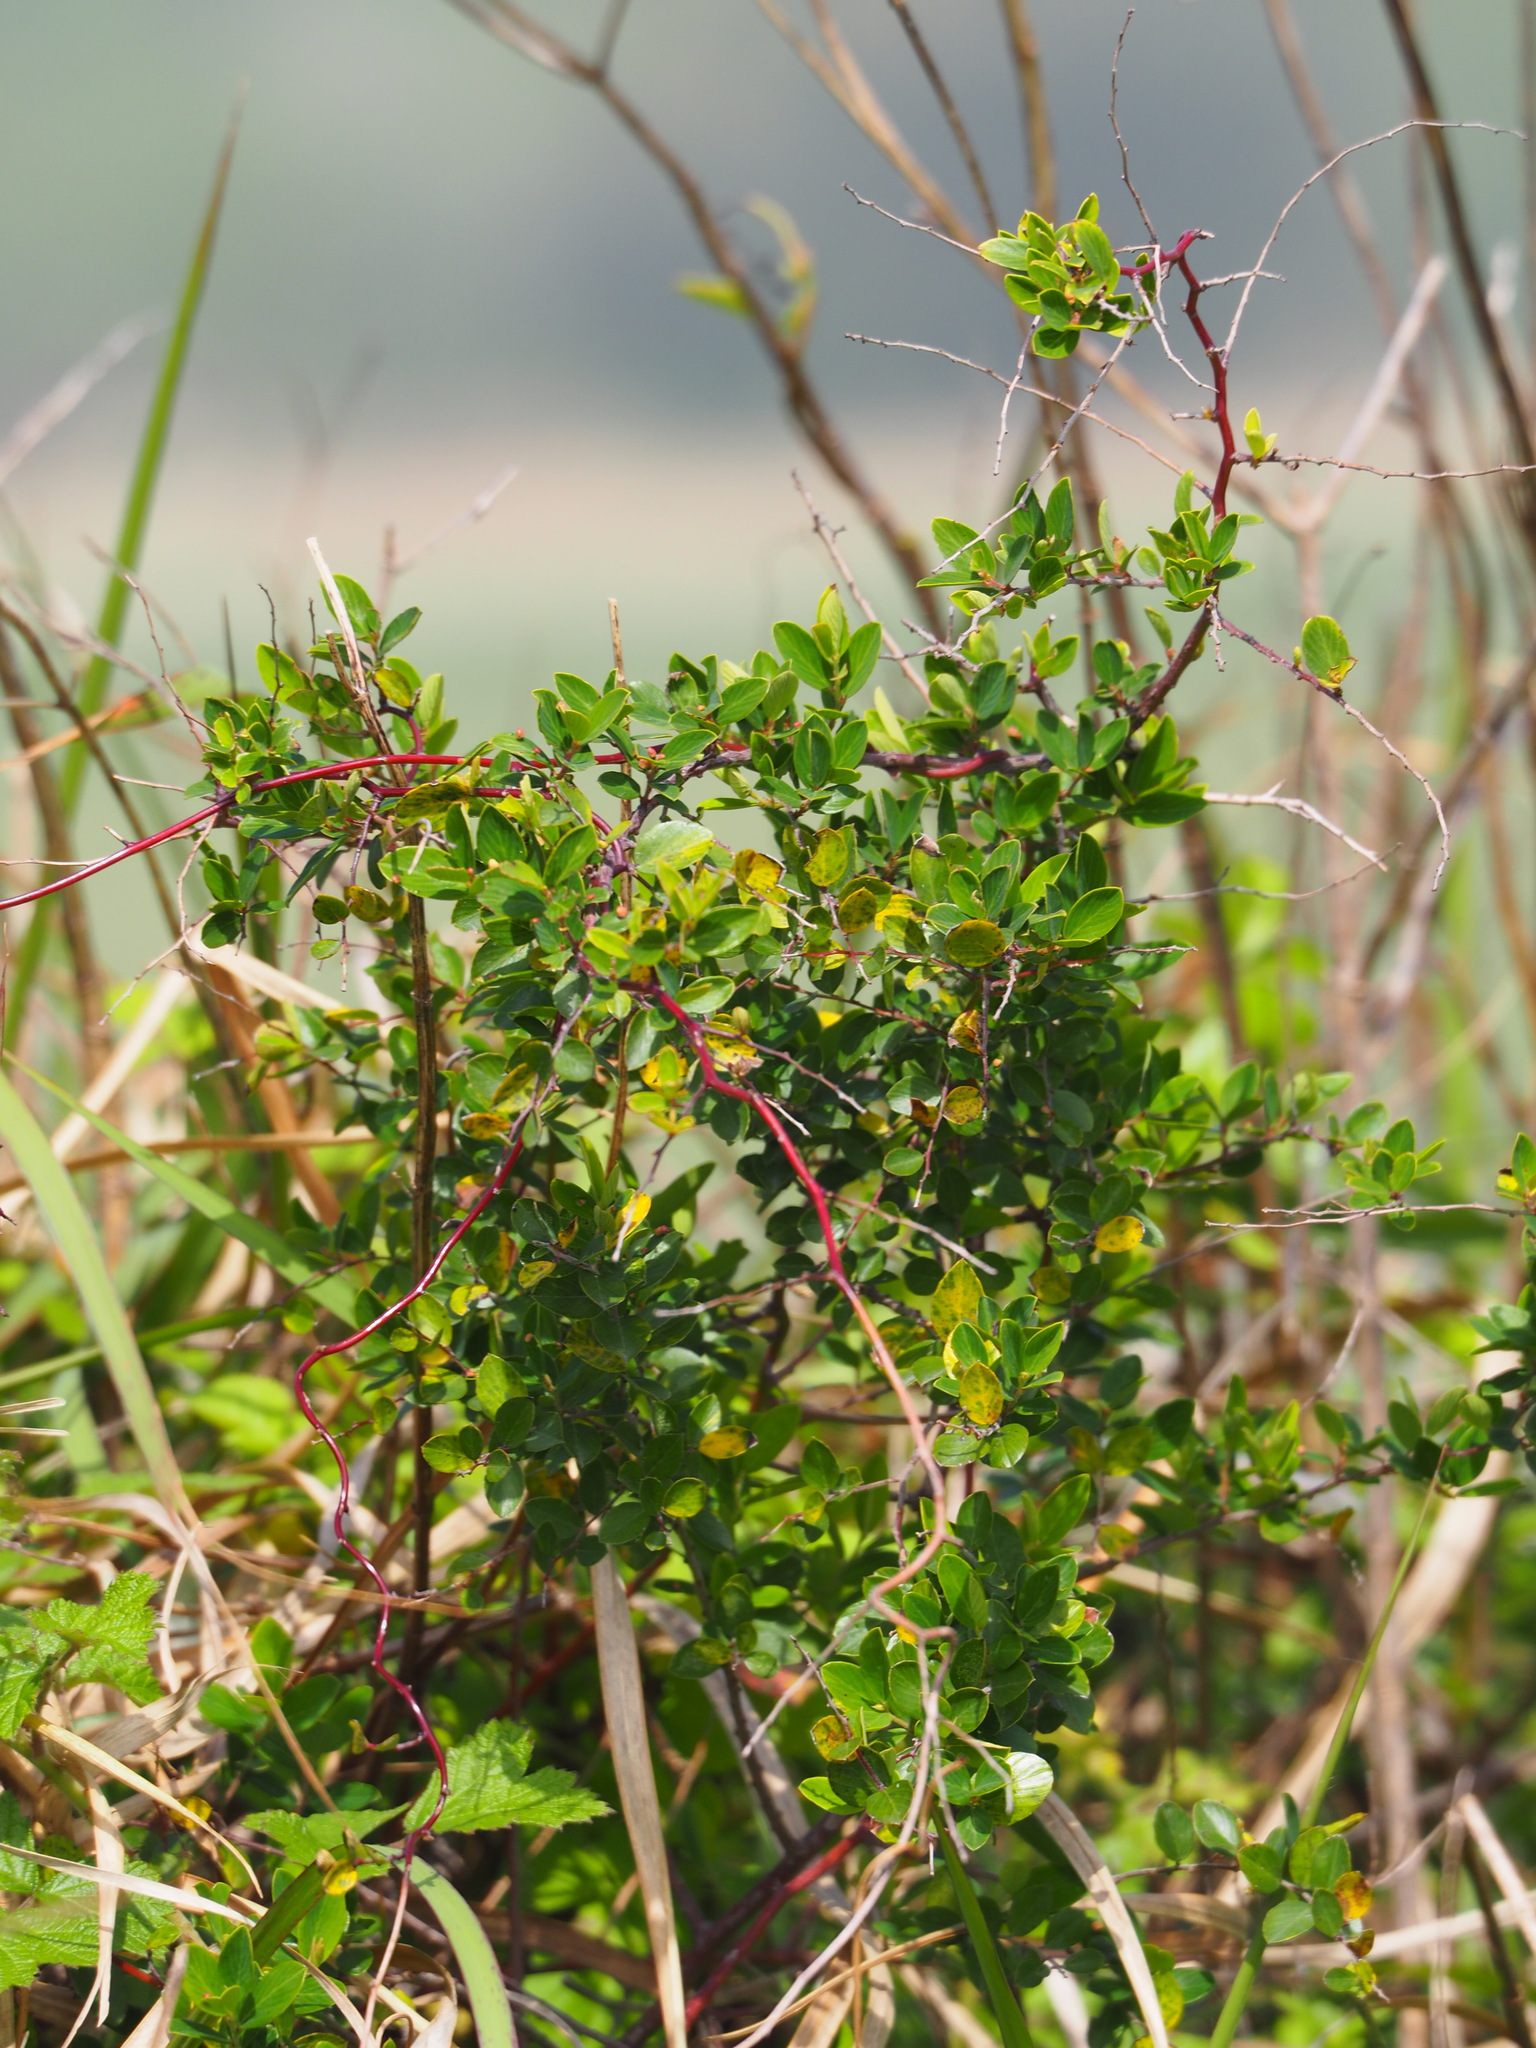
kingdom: Plantae
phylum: Tracheophyta
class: Magnoliopsida
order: Rosales
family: Rhamnaceae
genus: Berchemia
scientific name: Berchemia lineata
